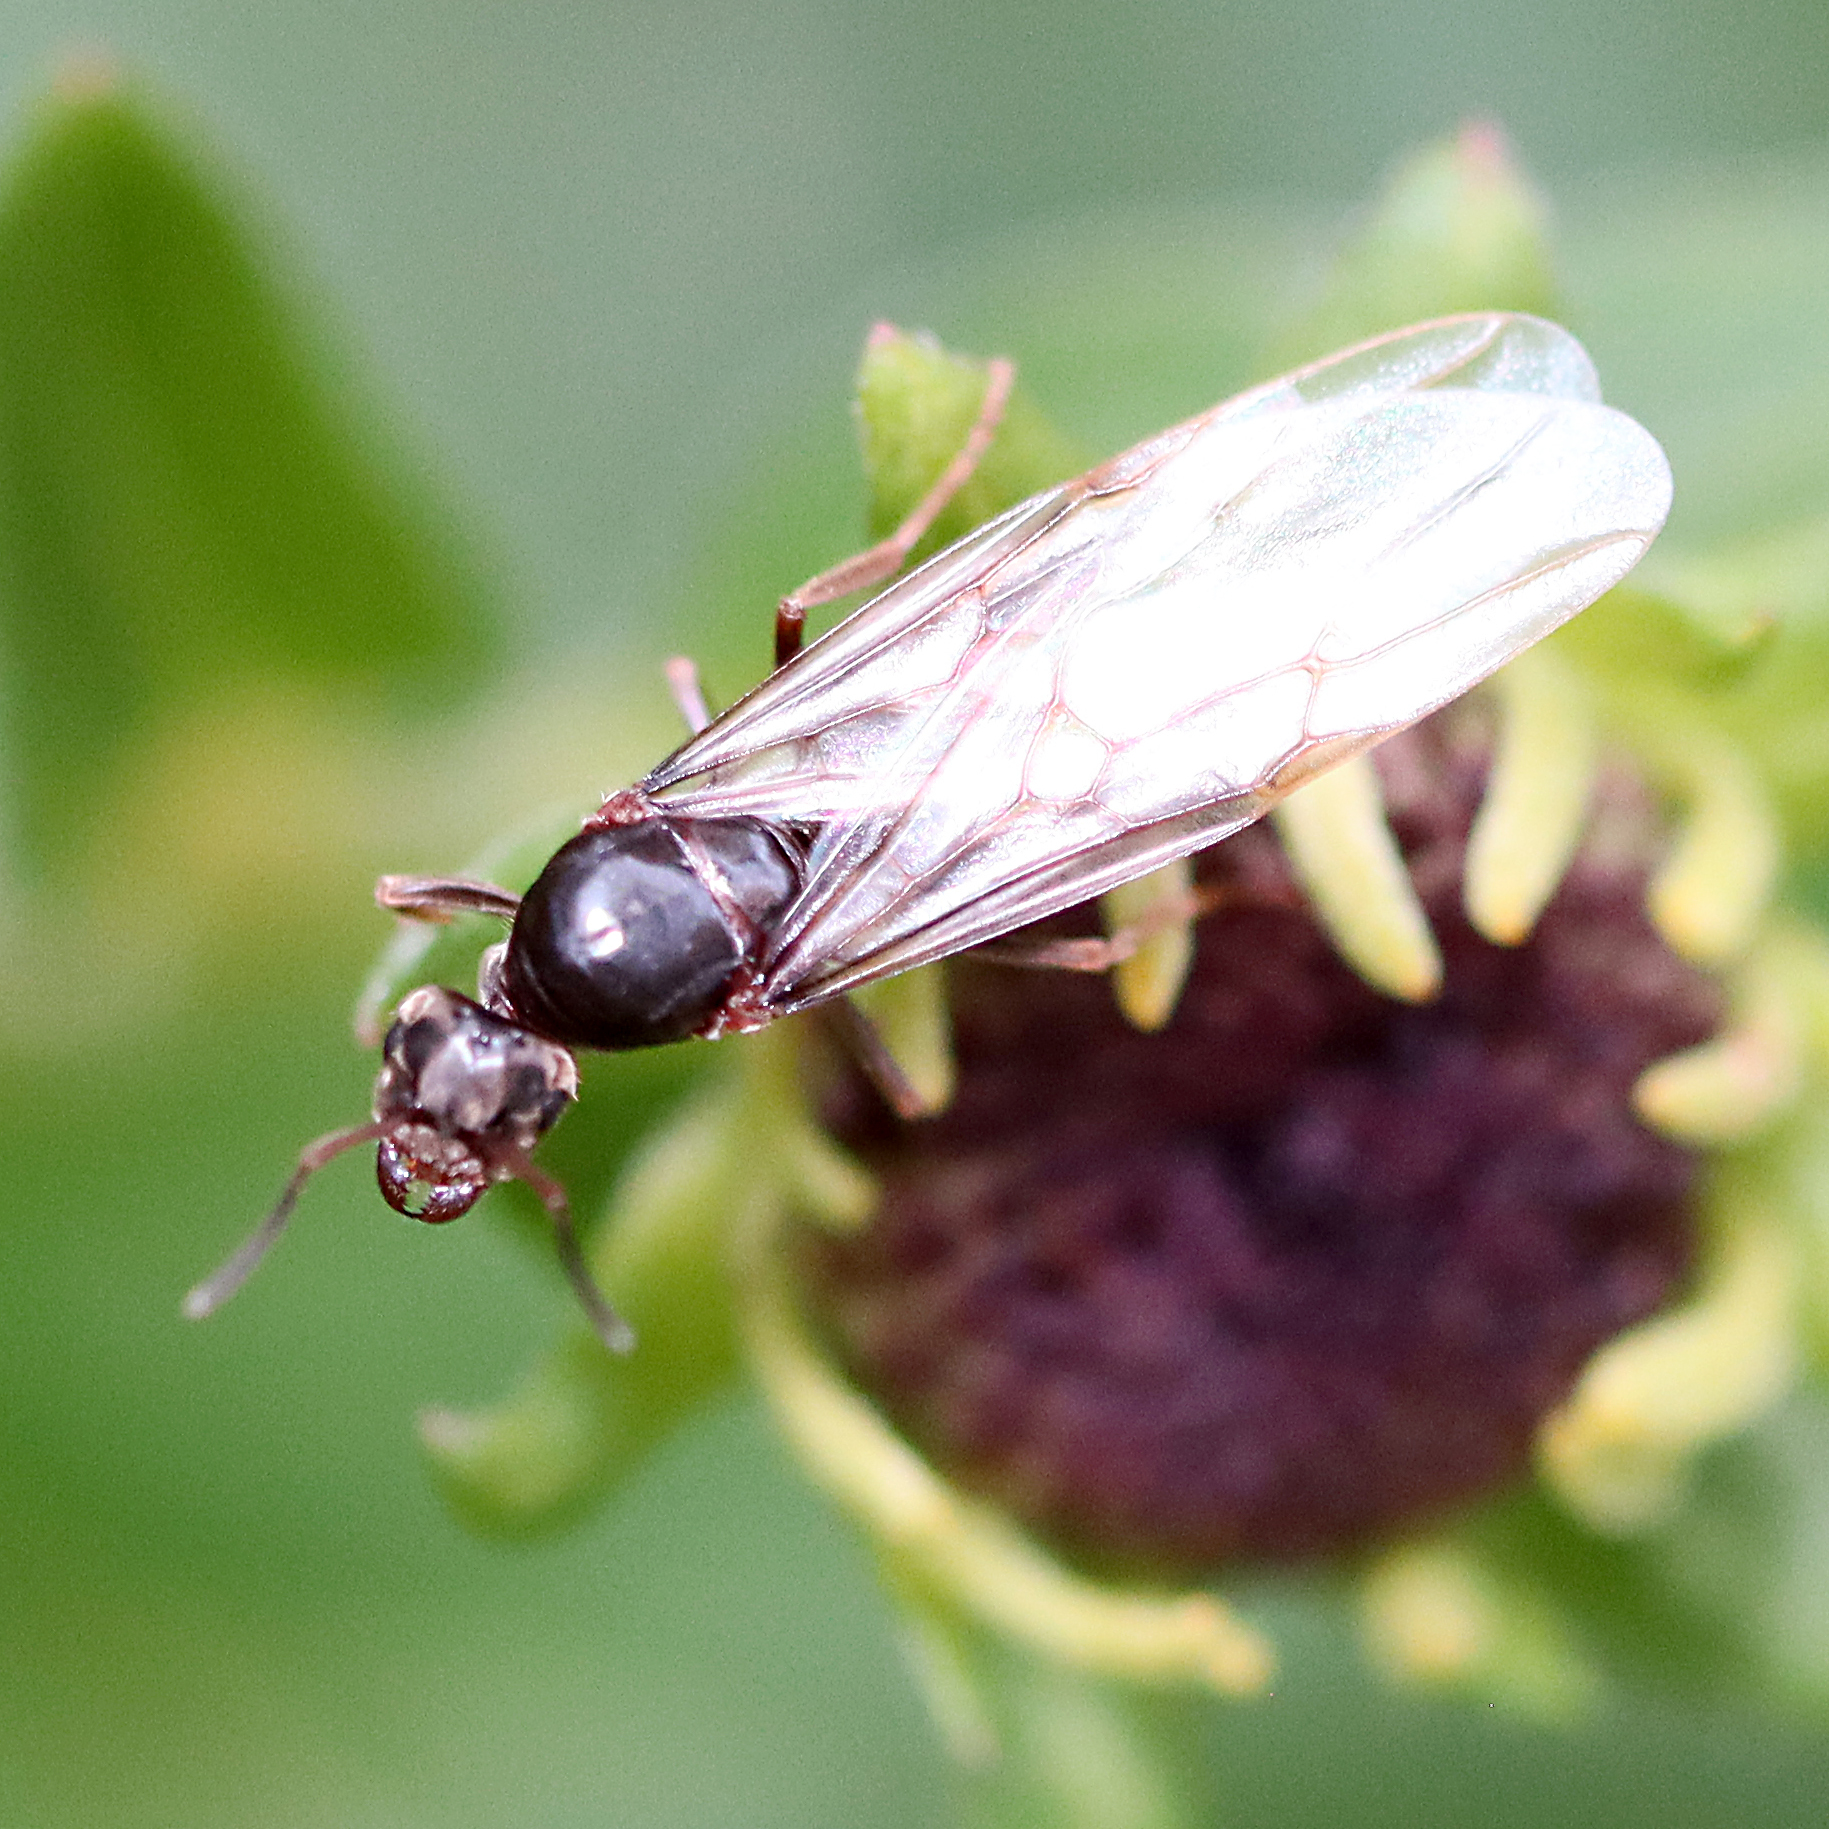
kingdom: Animalia
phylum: Arthropoda
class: Insecta
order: Hymenoptera
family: Formicidae
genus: Lasius
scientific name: Lasius americanus
